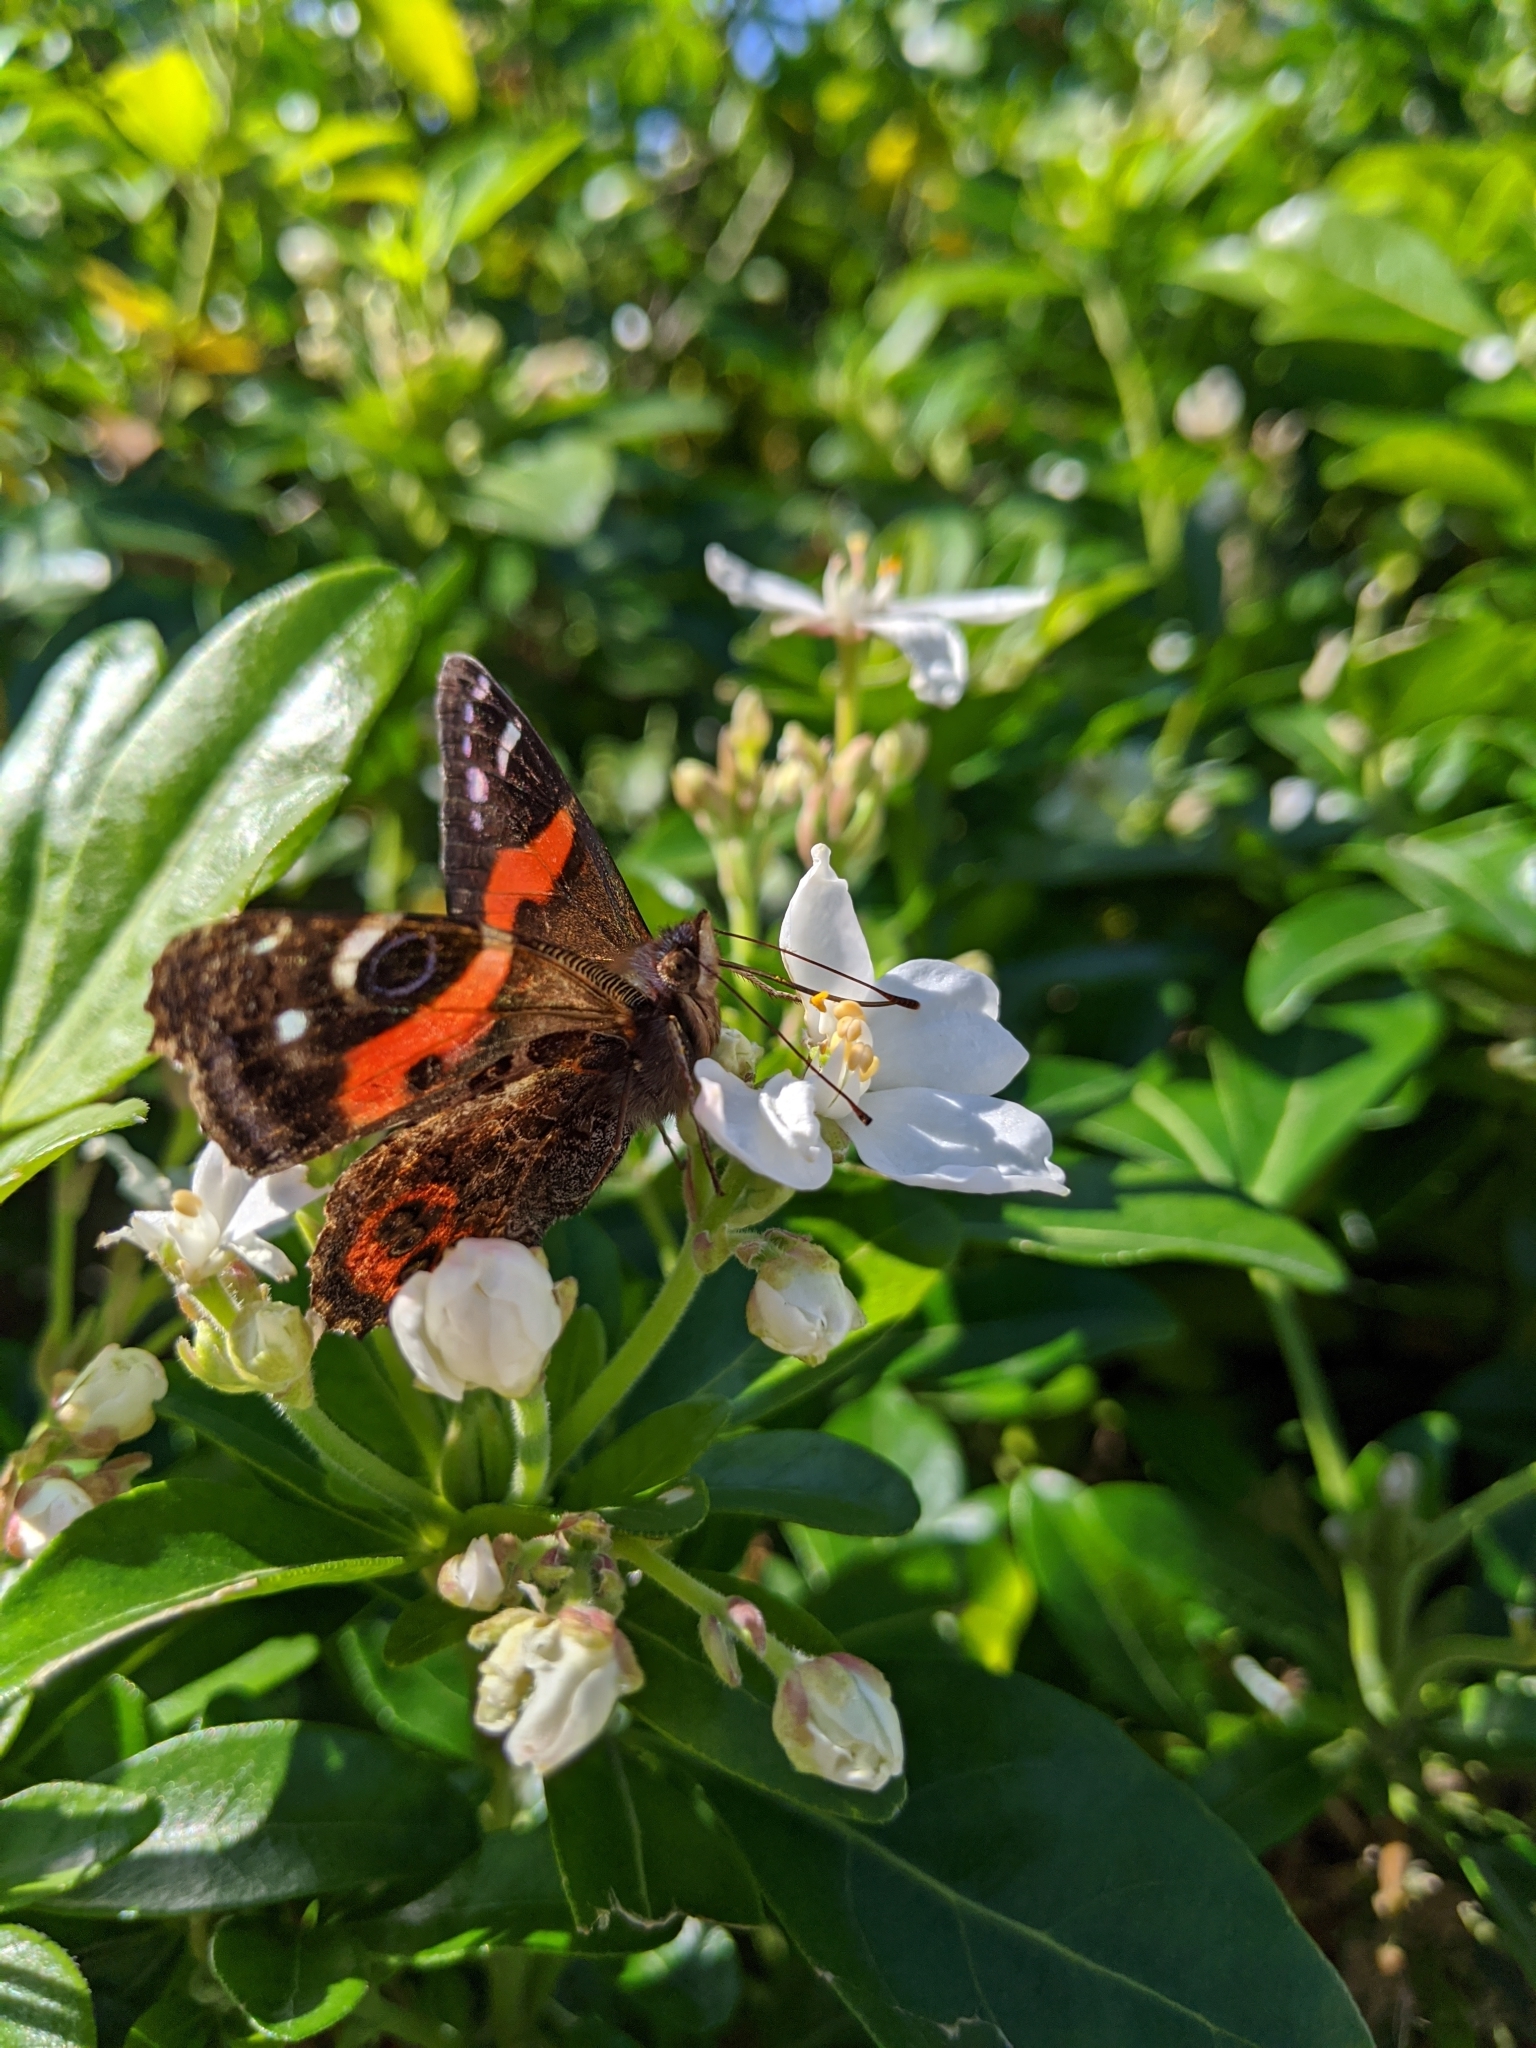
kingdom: Animalia
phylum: Arthropoda
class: Insecta
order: Lepidoptera
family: Nymphalidae
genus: Vanessa
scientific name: Vanessa gonerilla
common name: New zealand red admiral
